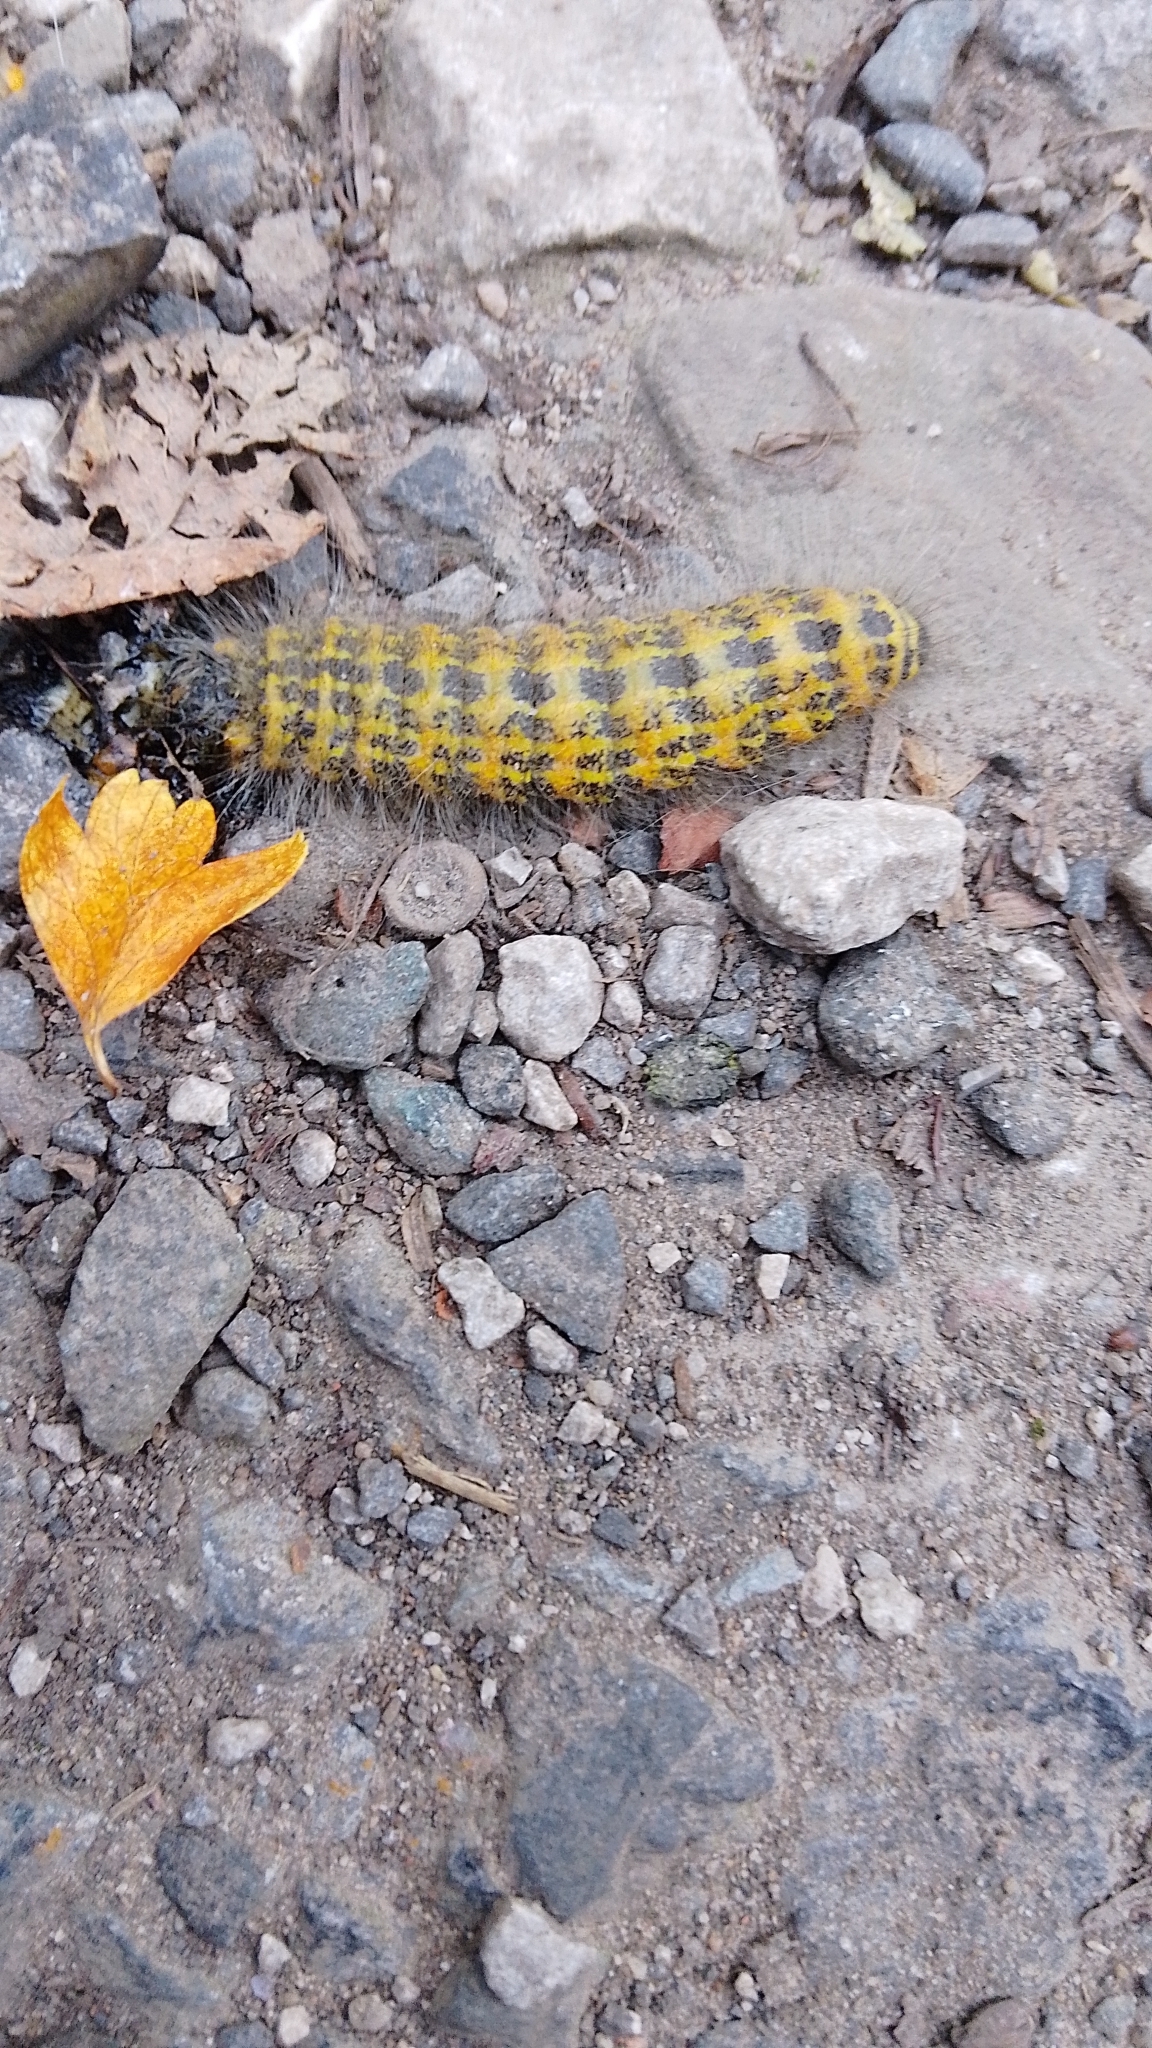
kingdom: Animalia
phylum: Arthropoda
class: Insecta
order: Lepidoptera
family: Notodontidae
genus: Phalera
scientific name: Phalera bucephala
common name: Buff-tip
